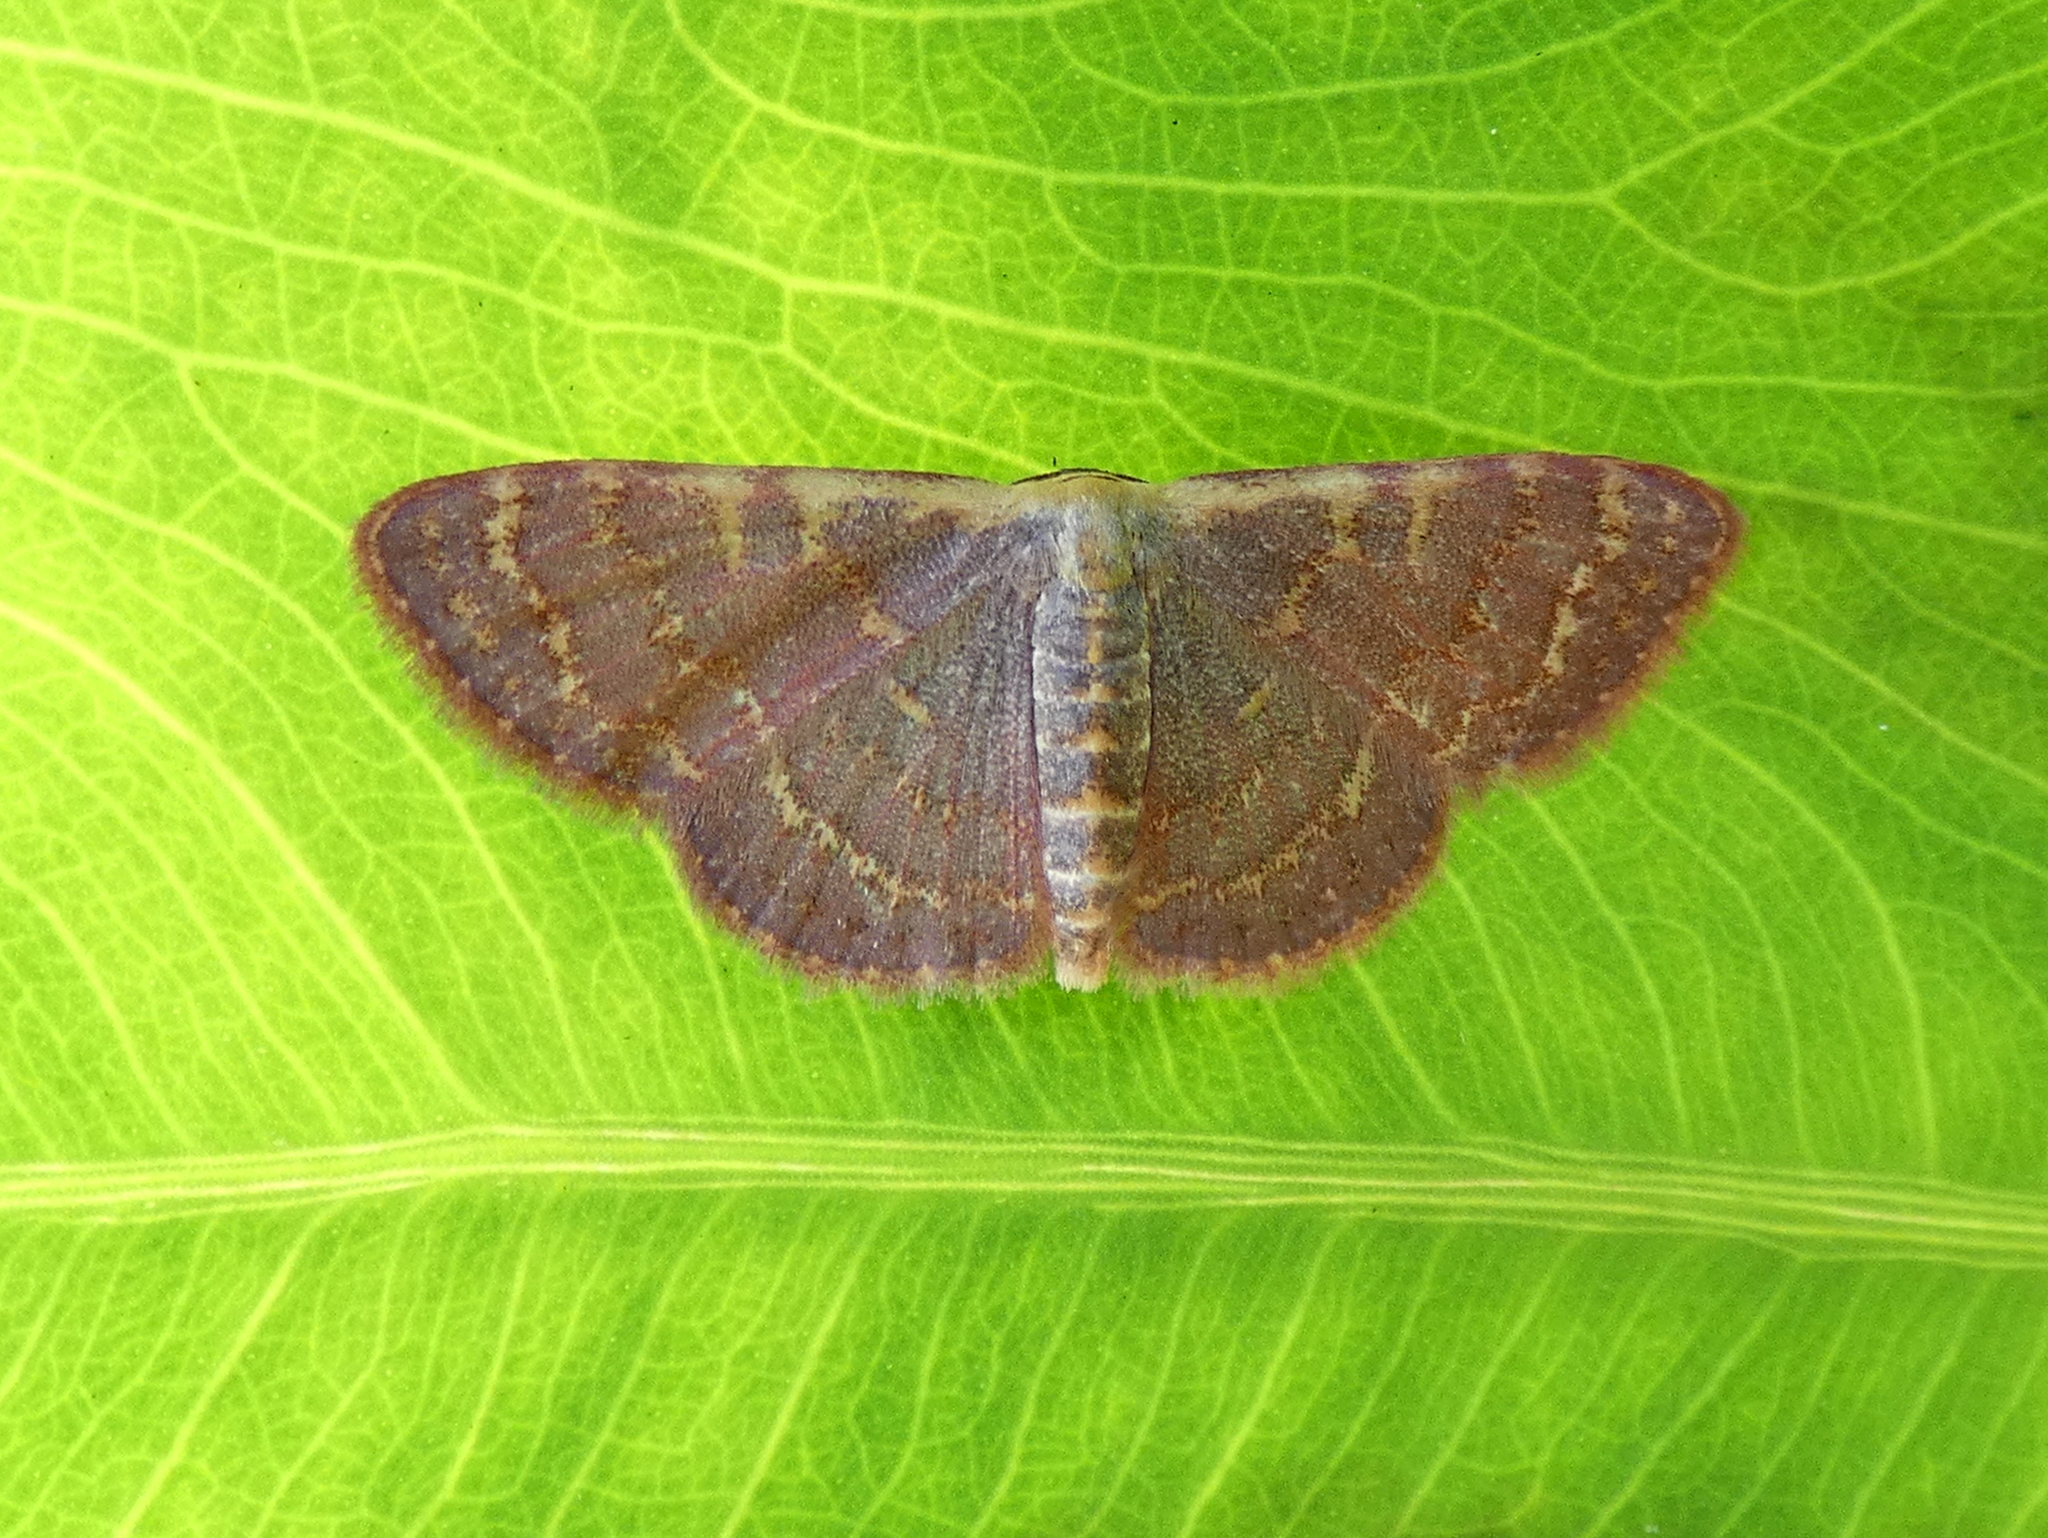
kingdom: Animalia
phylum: Arthropoda
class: Insecta
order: Lepidoptera
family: Geometridae
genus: Leptostales
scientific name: Leptostales pannaria
